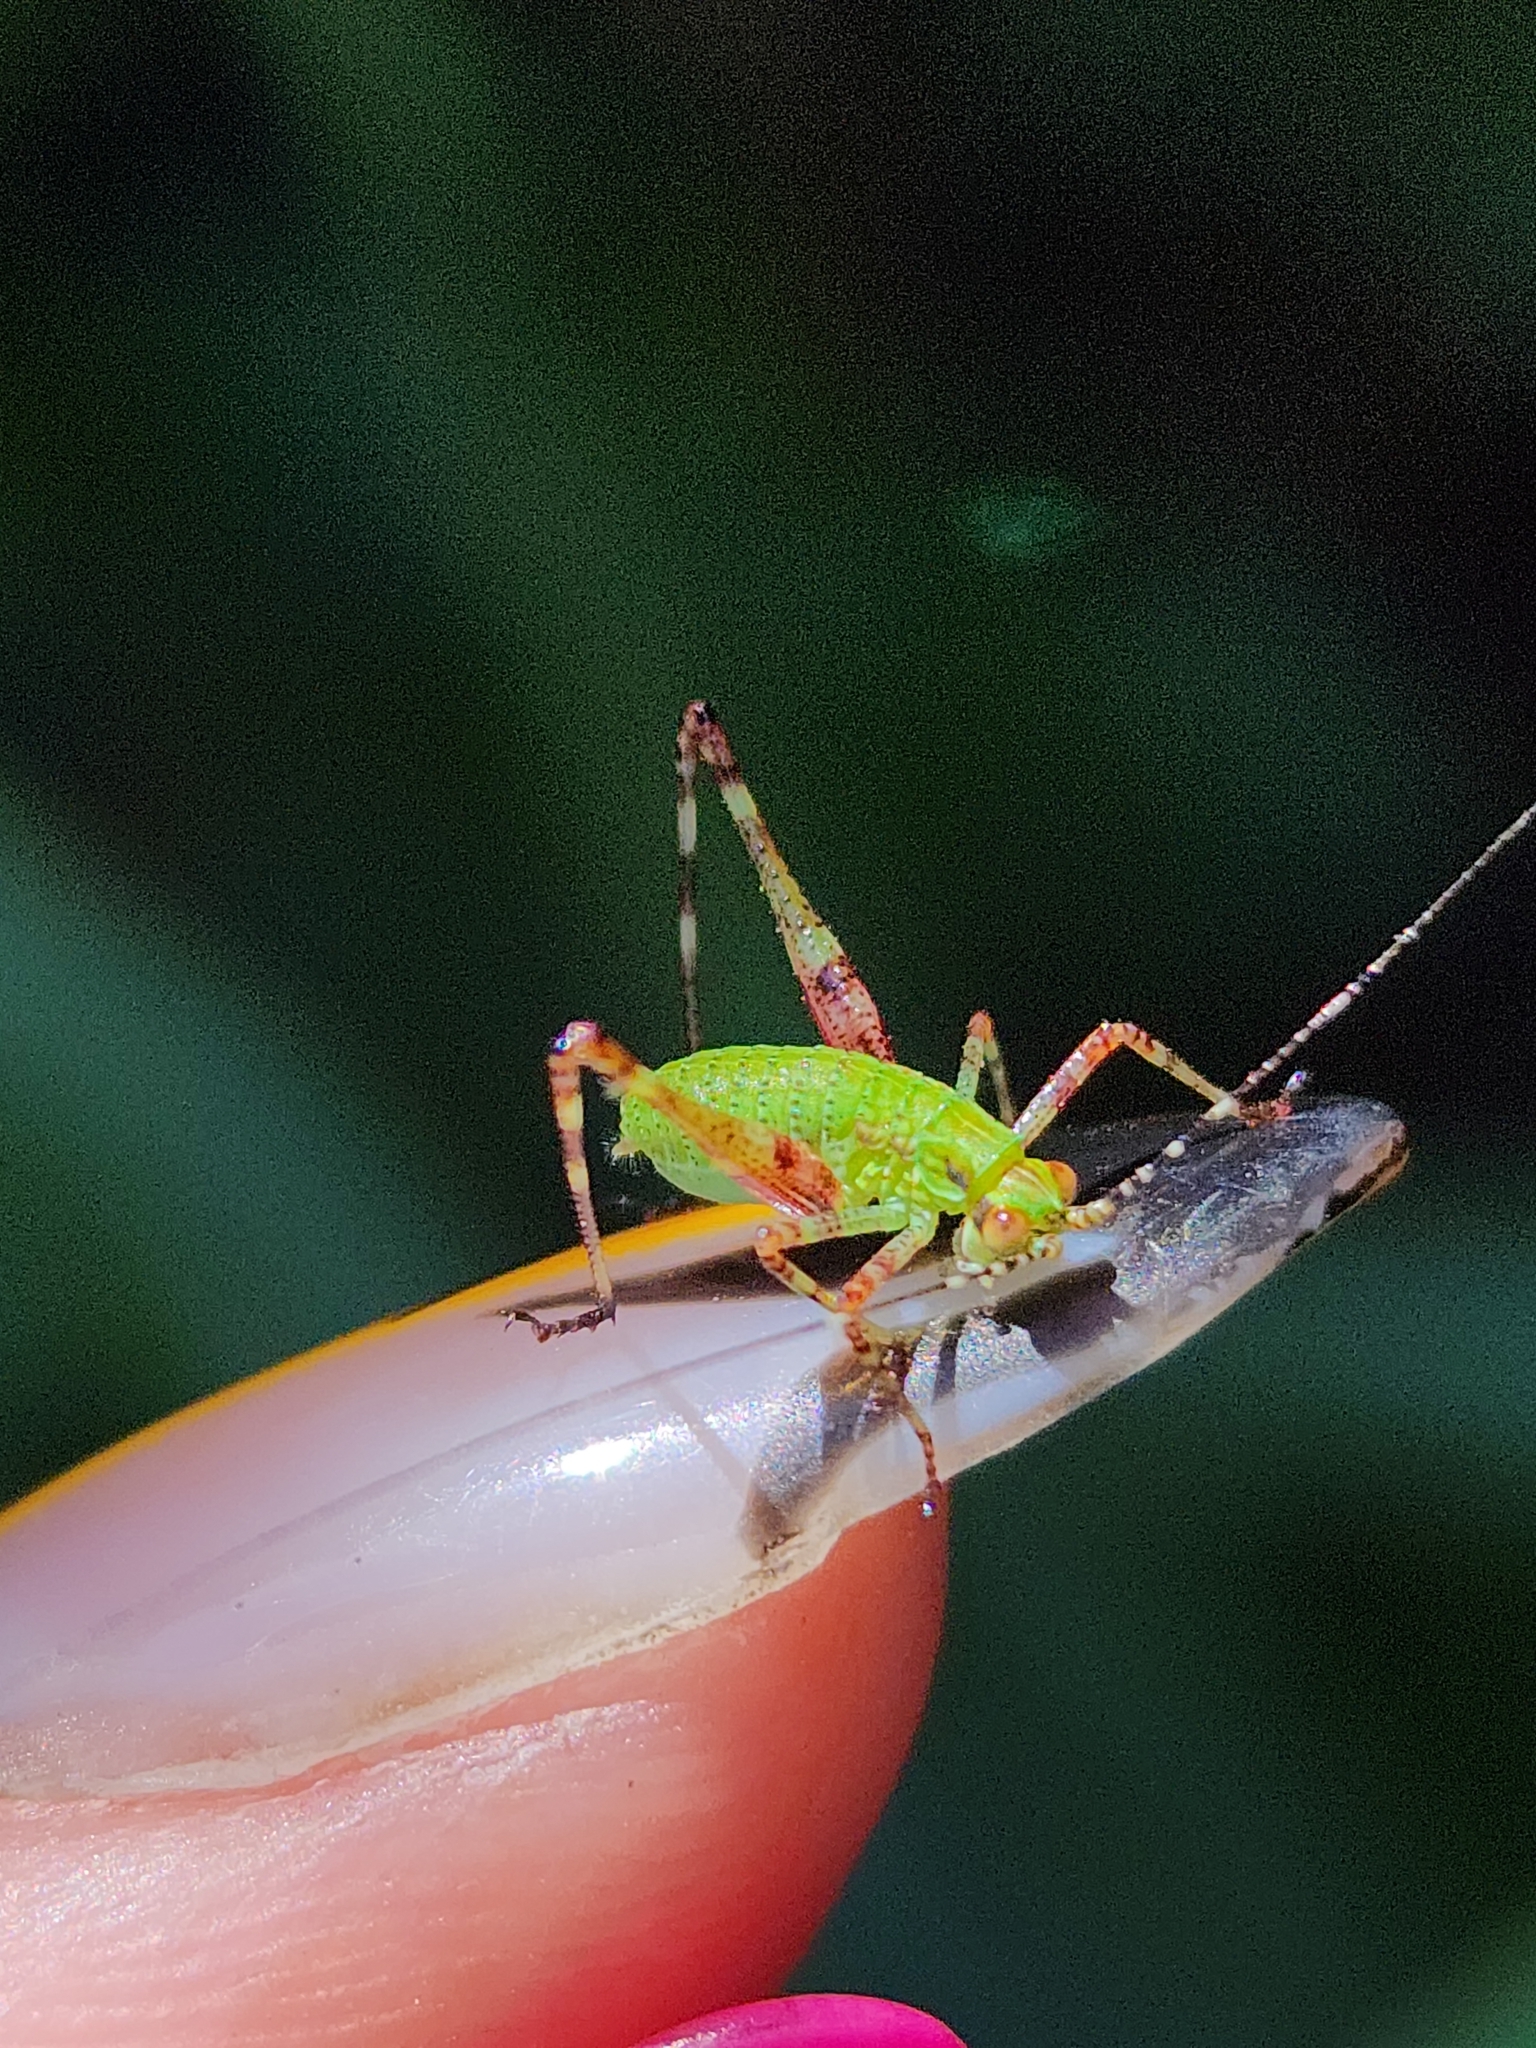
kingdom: Animalia
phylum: Arthropoda
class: Insecta
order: Orthoptera
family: Tettigoniidae
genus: Ligocatinus
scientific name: Ligocatinus spinatus
